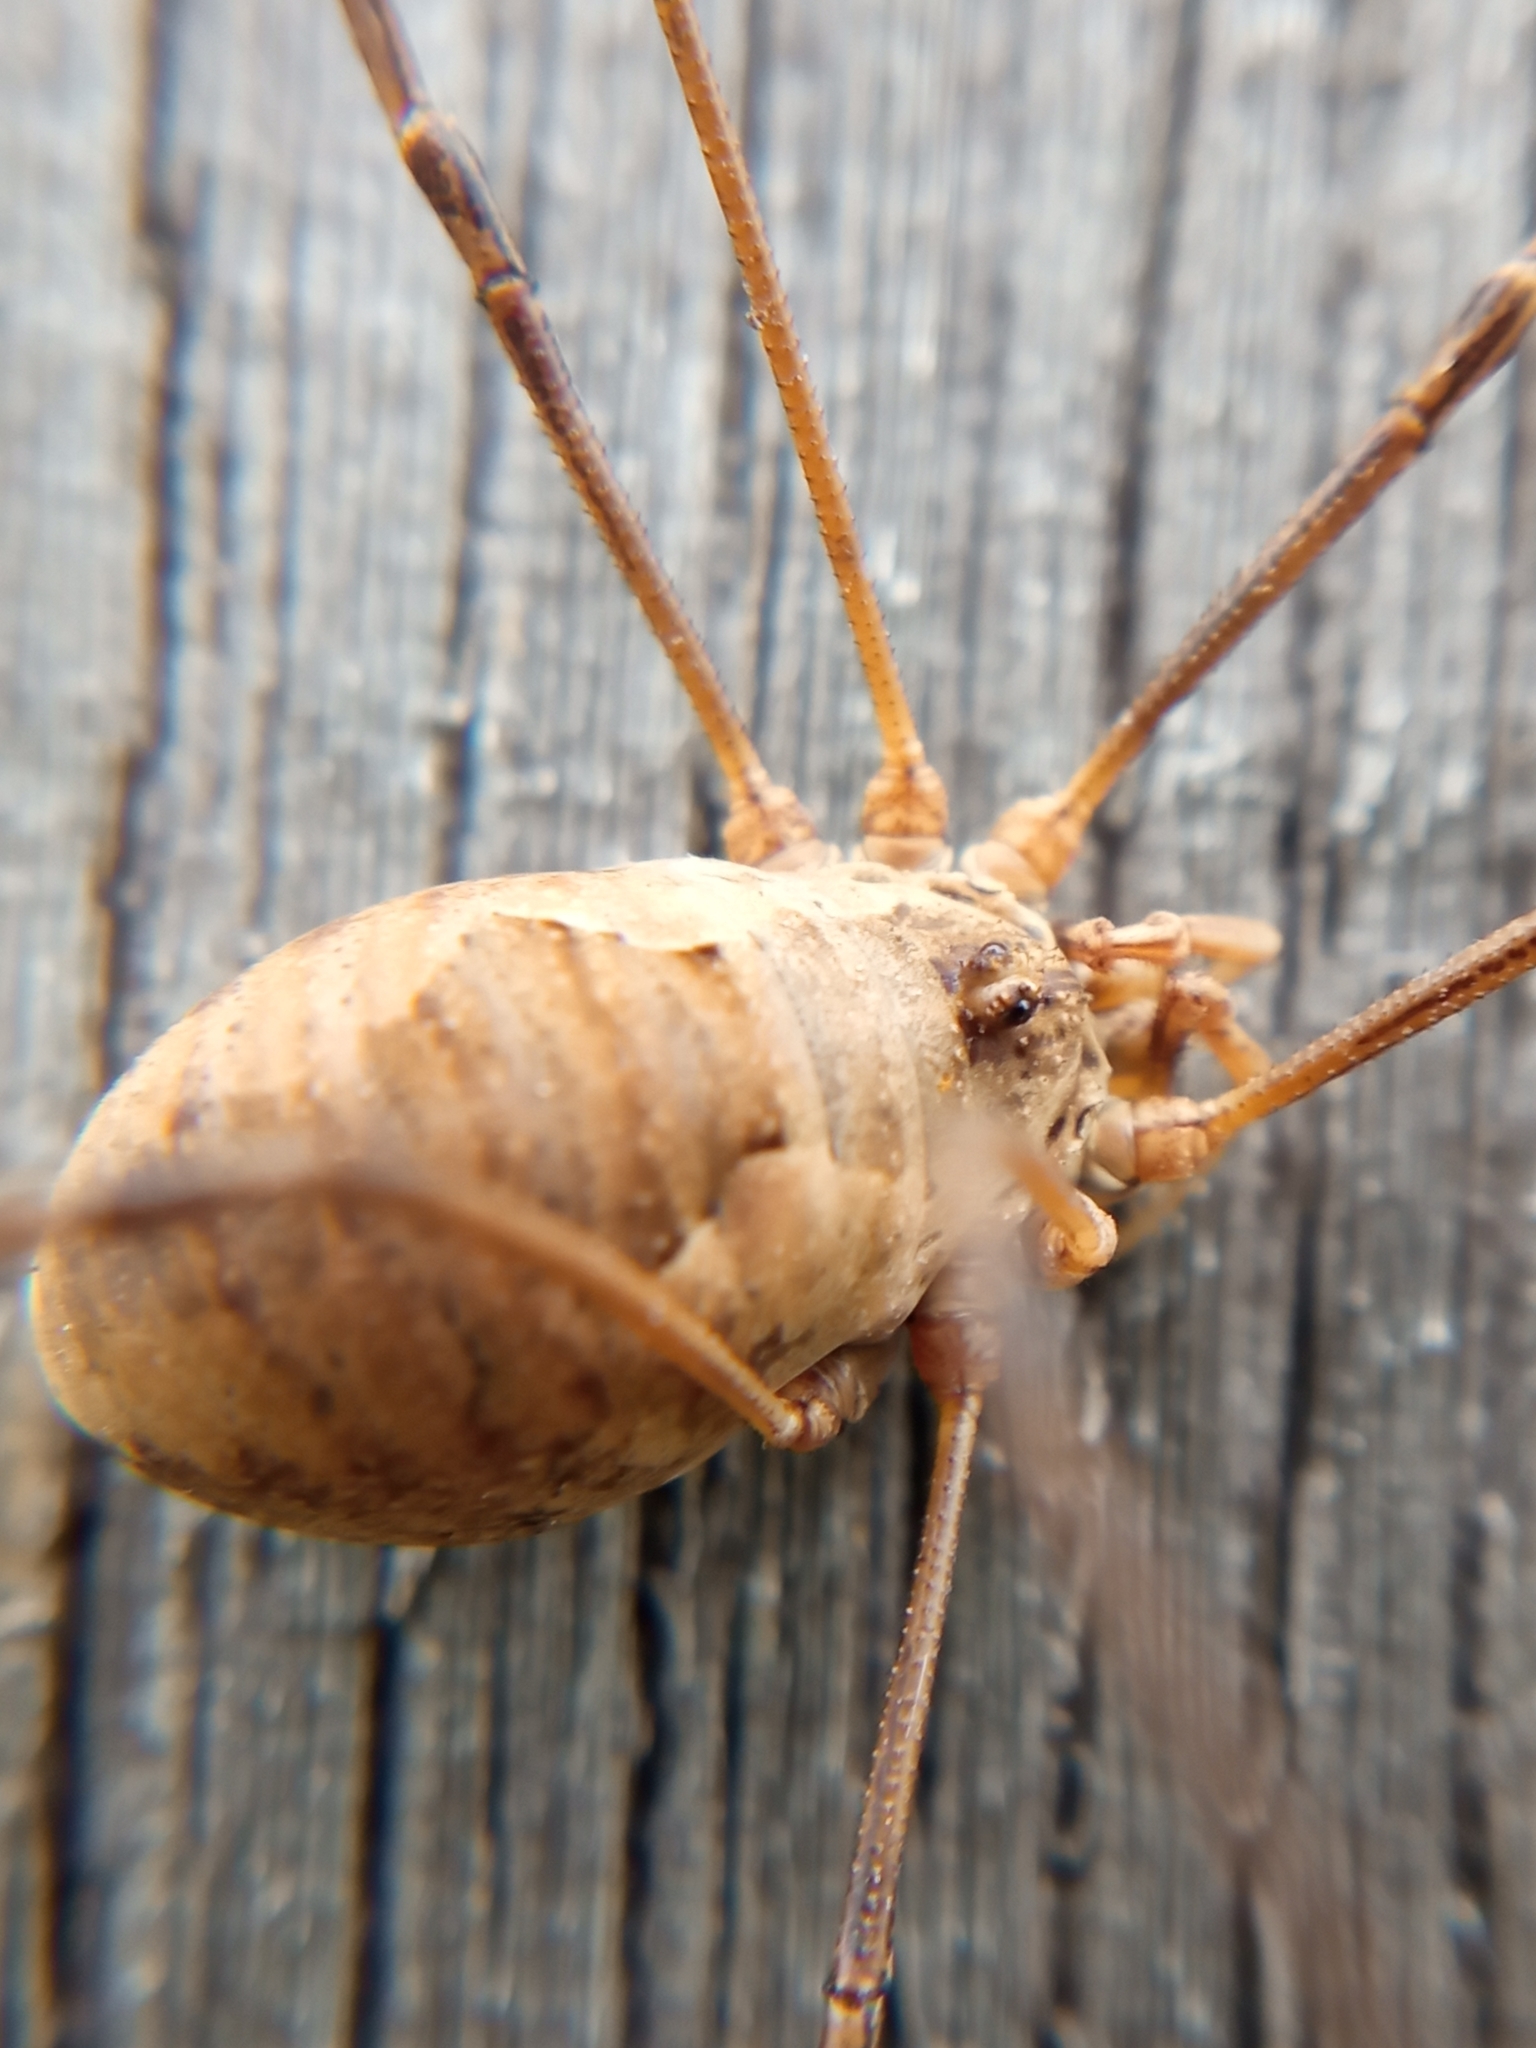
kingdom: Animalia
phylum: Arthropoda
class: Arachnida
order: Opiliones
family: Phalangiidae
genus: Phalangium
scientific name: Phalangium opilio
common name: Daddy longleg
